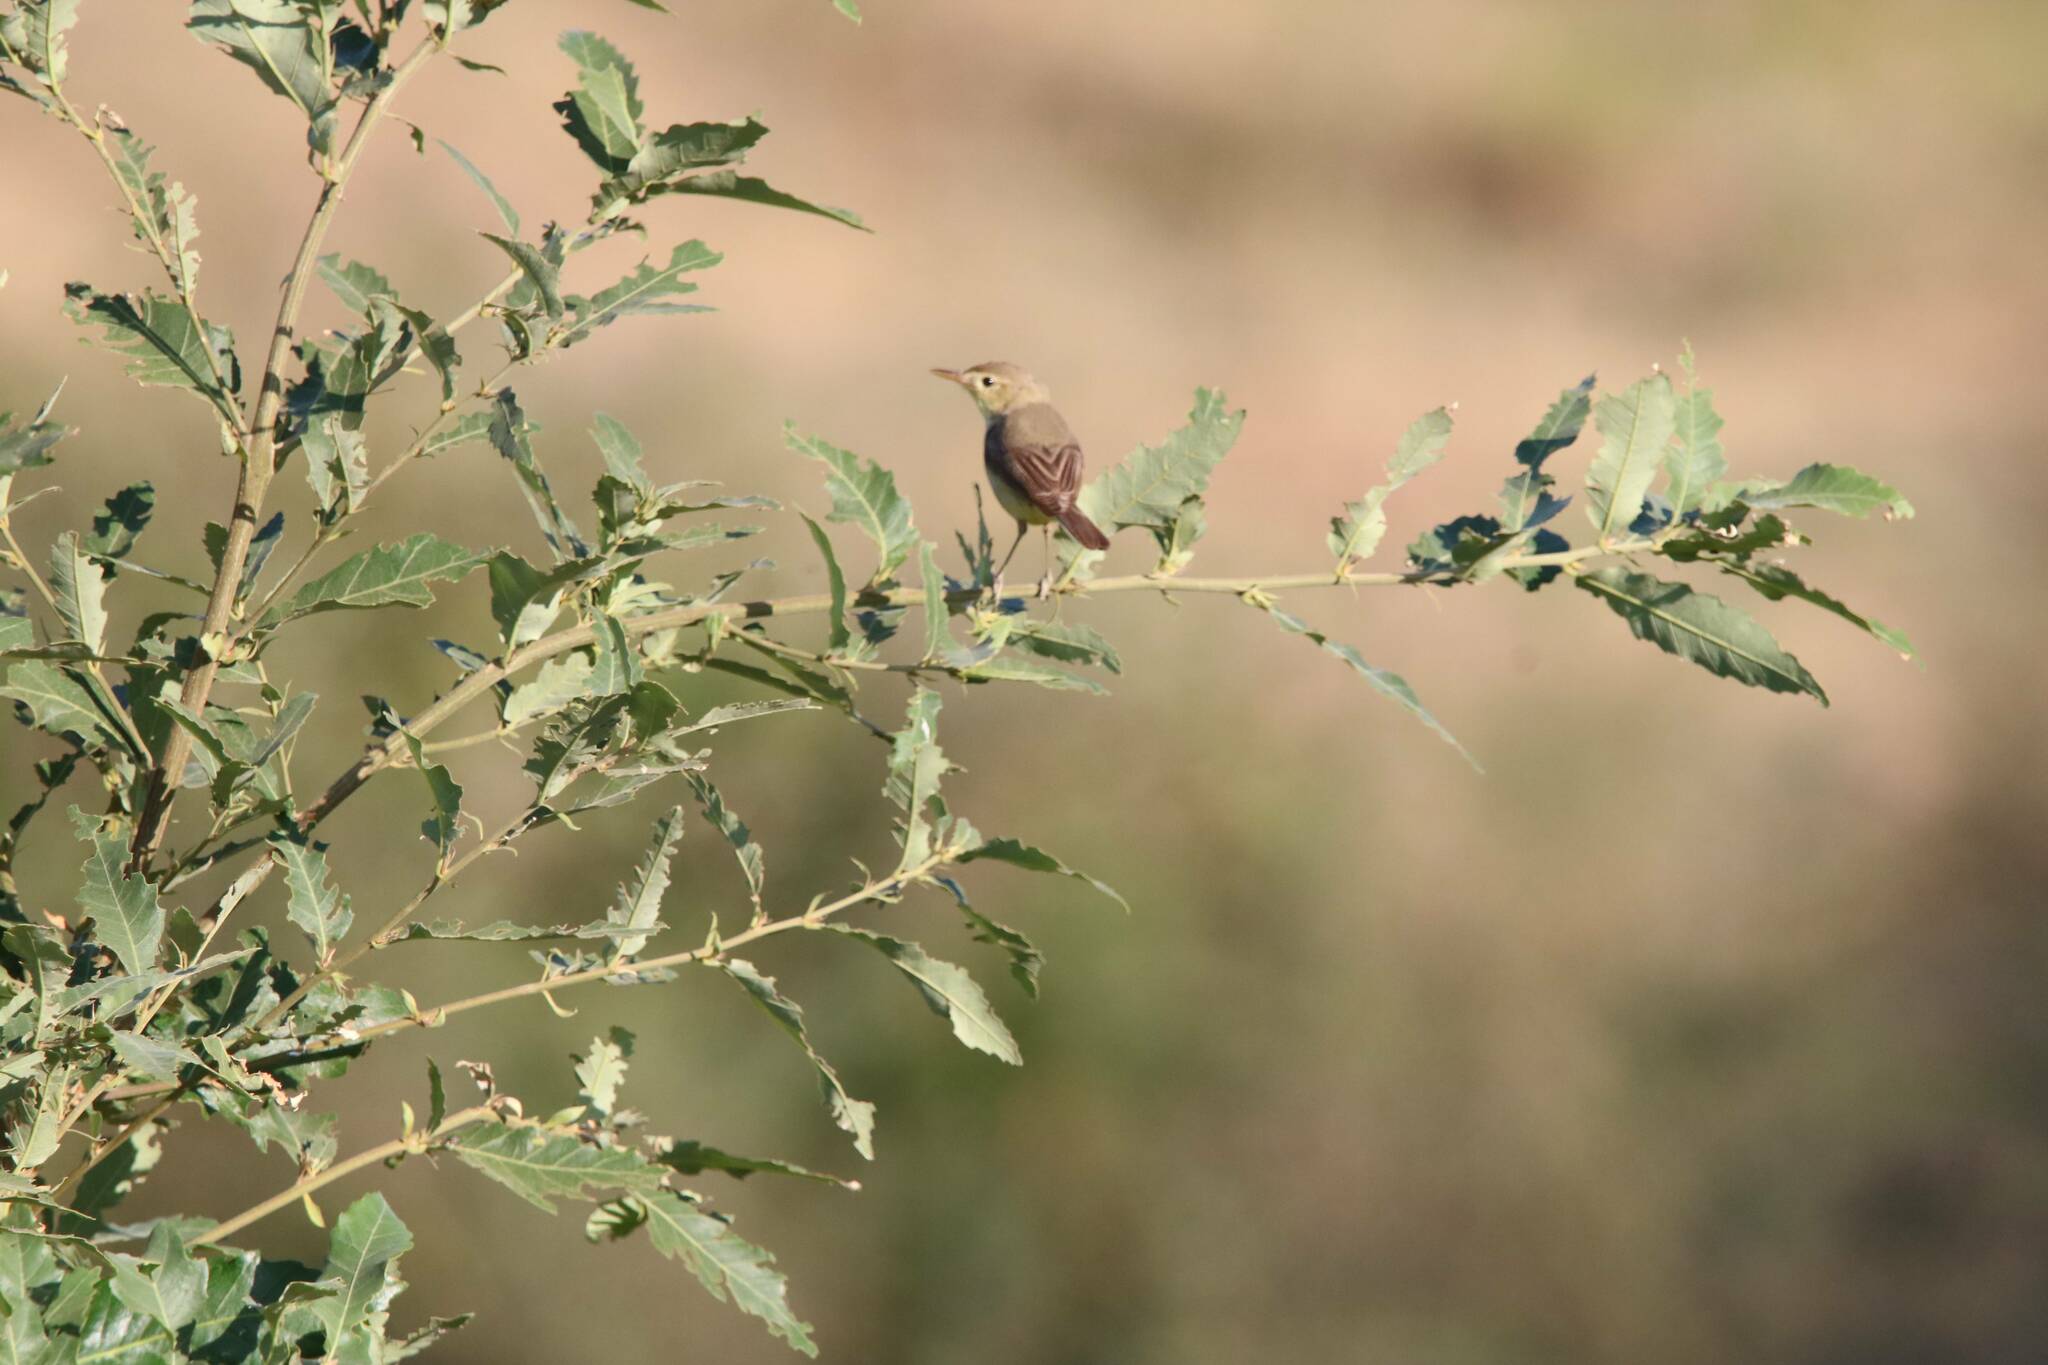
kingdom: Animalia
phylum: Chordata
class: Aves
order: Passeriformes
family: Acrocephalidae
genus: Hippolais
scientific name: Hippolais polyglotta
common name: Melodious warbler
